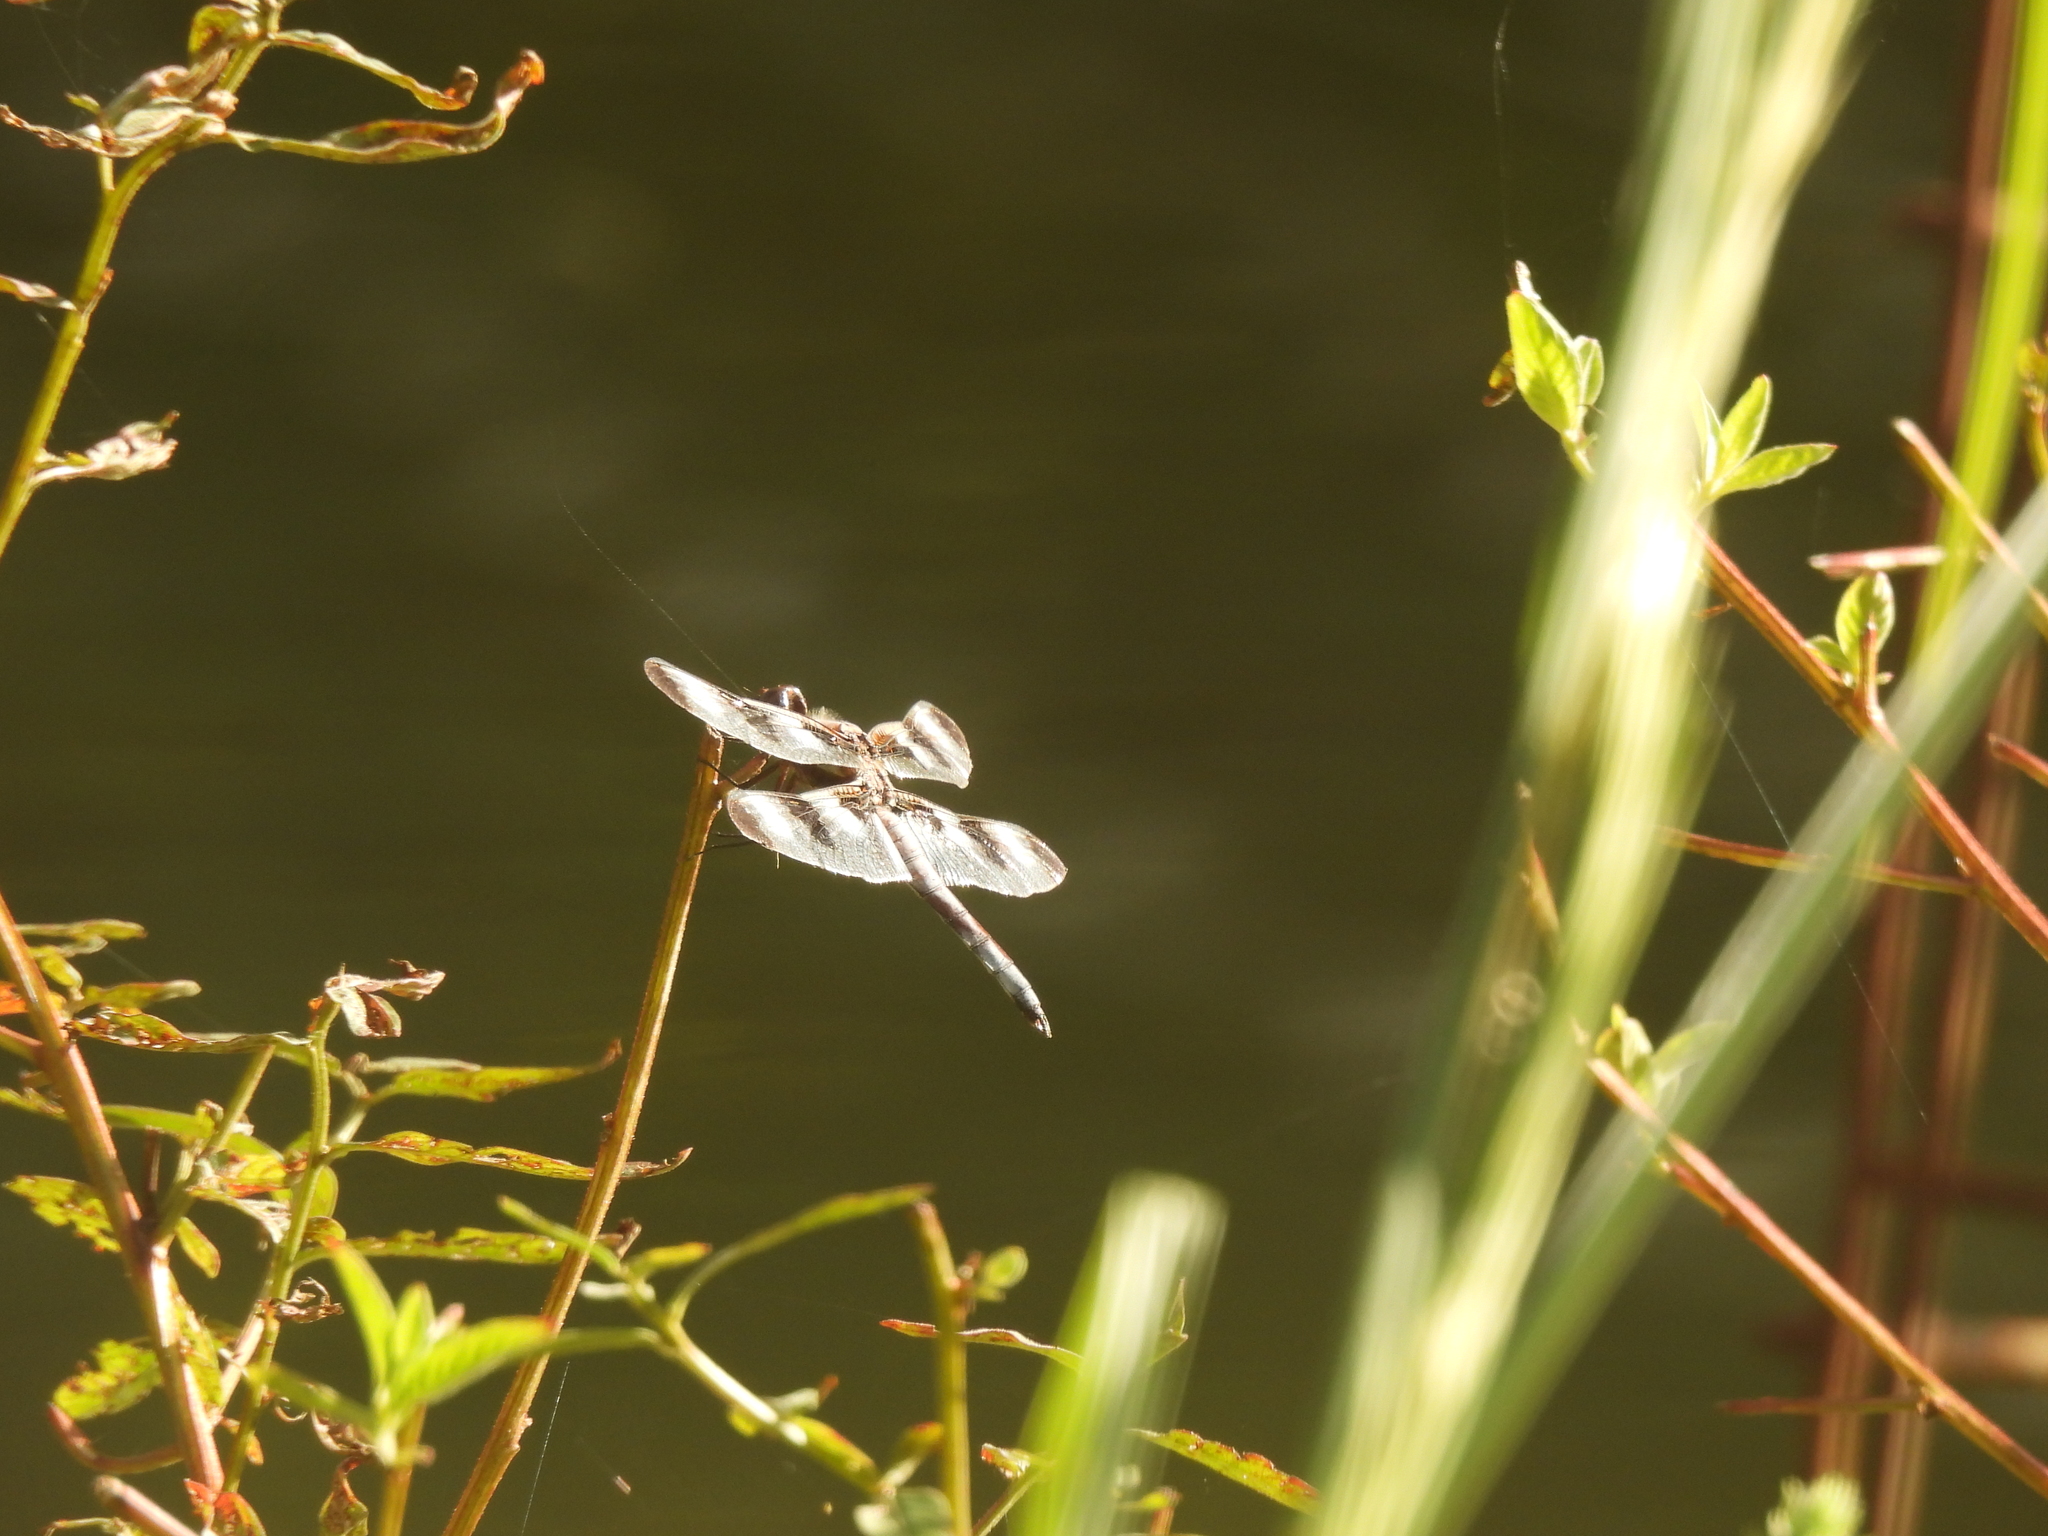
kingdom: Animalia
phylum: Arthropoda
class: Insecta
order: Odonata
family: Libellulidae
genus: Libellula
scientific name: Libellula pulchella
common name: Twelve-spotted skimmer
